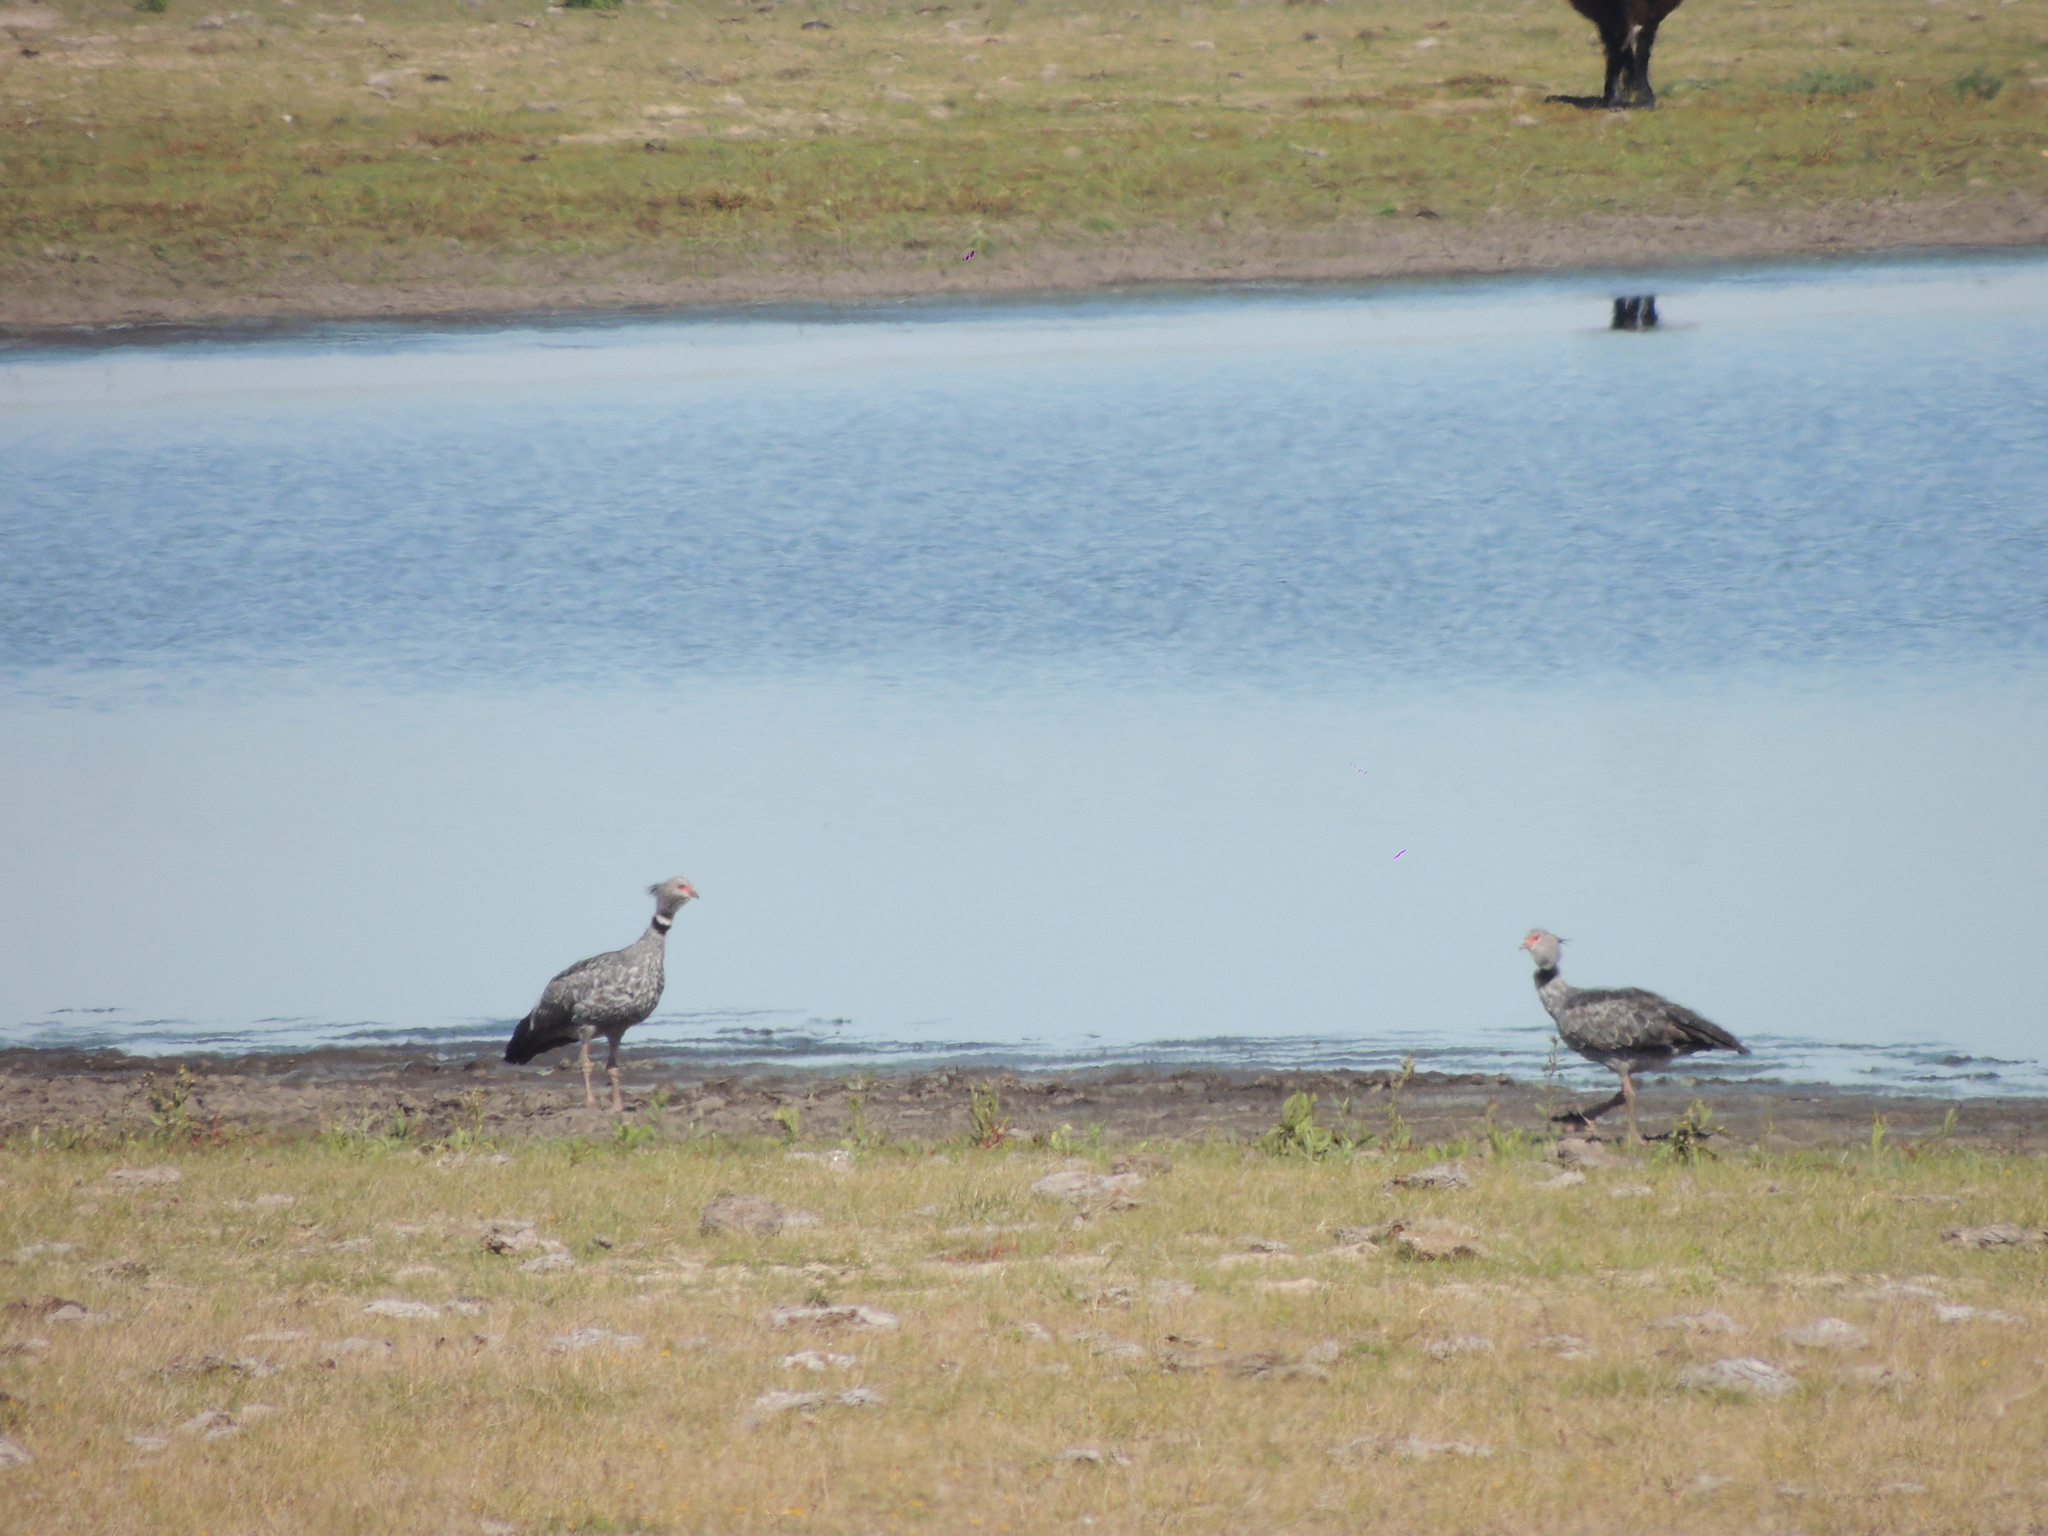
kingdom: Animalia
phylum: Chordata
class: Aves
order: Anseriformes
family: Anhimidae
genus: Chauna
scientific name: Chauna torquata
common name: Southern screamer
